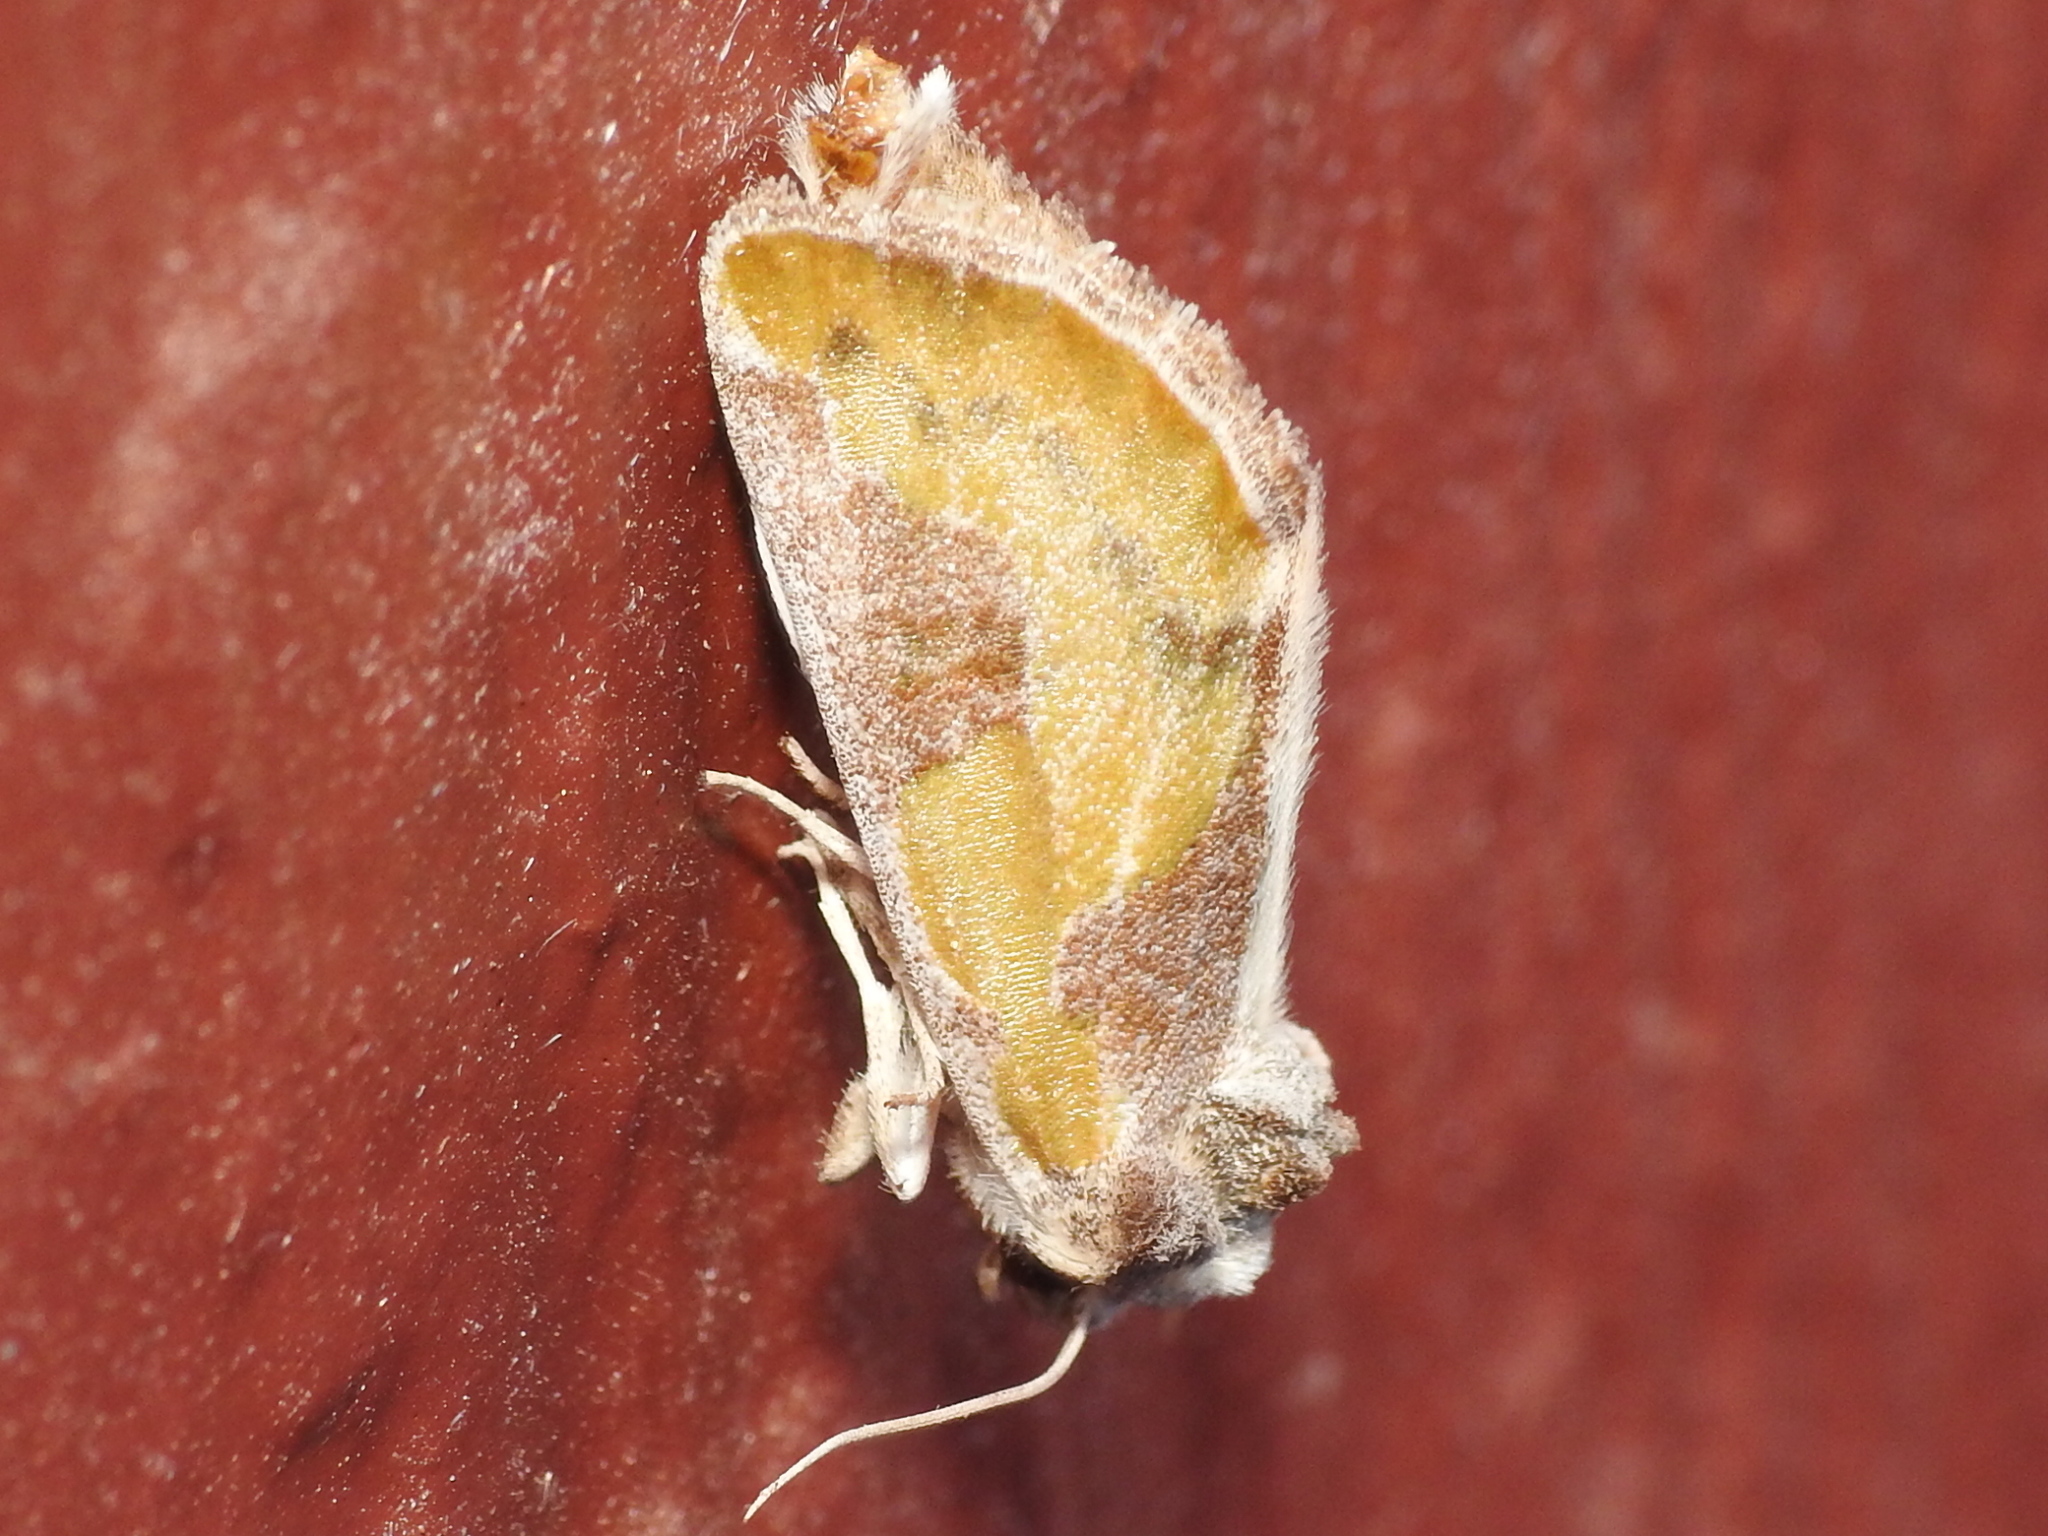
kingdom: Animalia
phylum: Arthropoda
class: Insecta
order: Lepidoptera
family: Noctuidae
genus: Chalcopasta
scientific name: Chalcopasta fulgens
